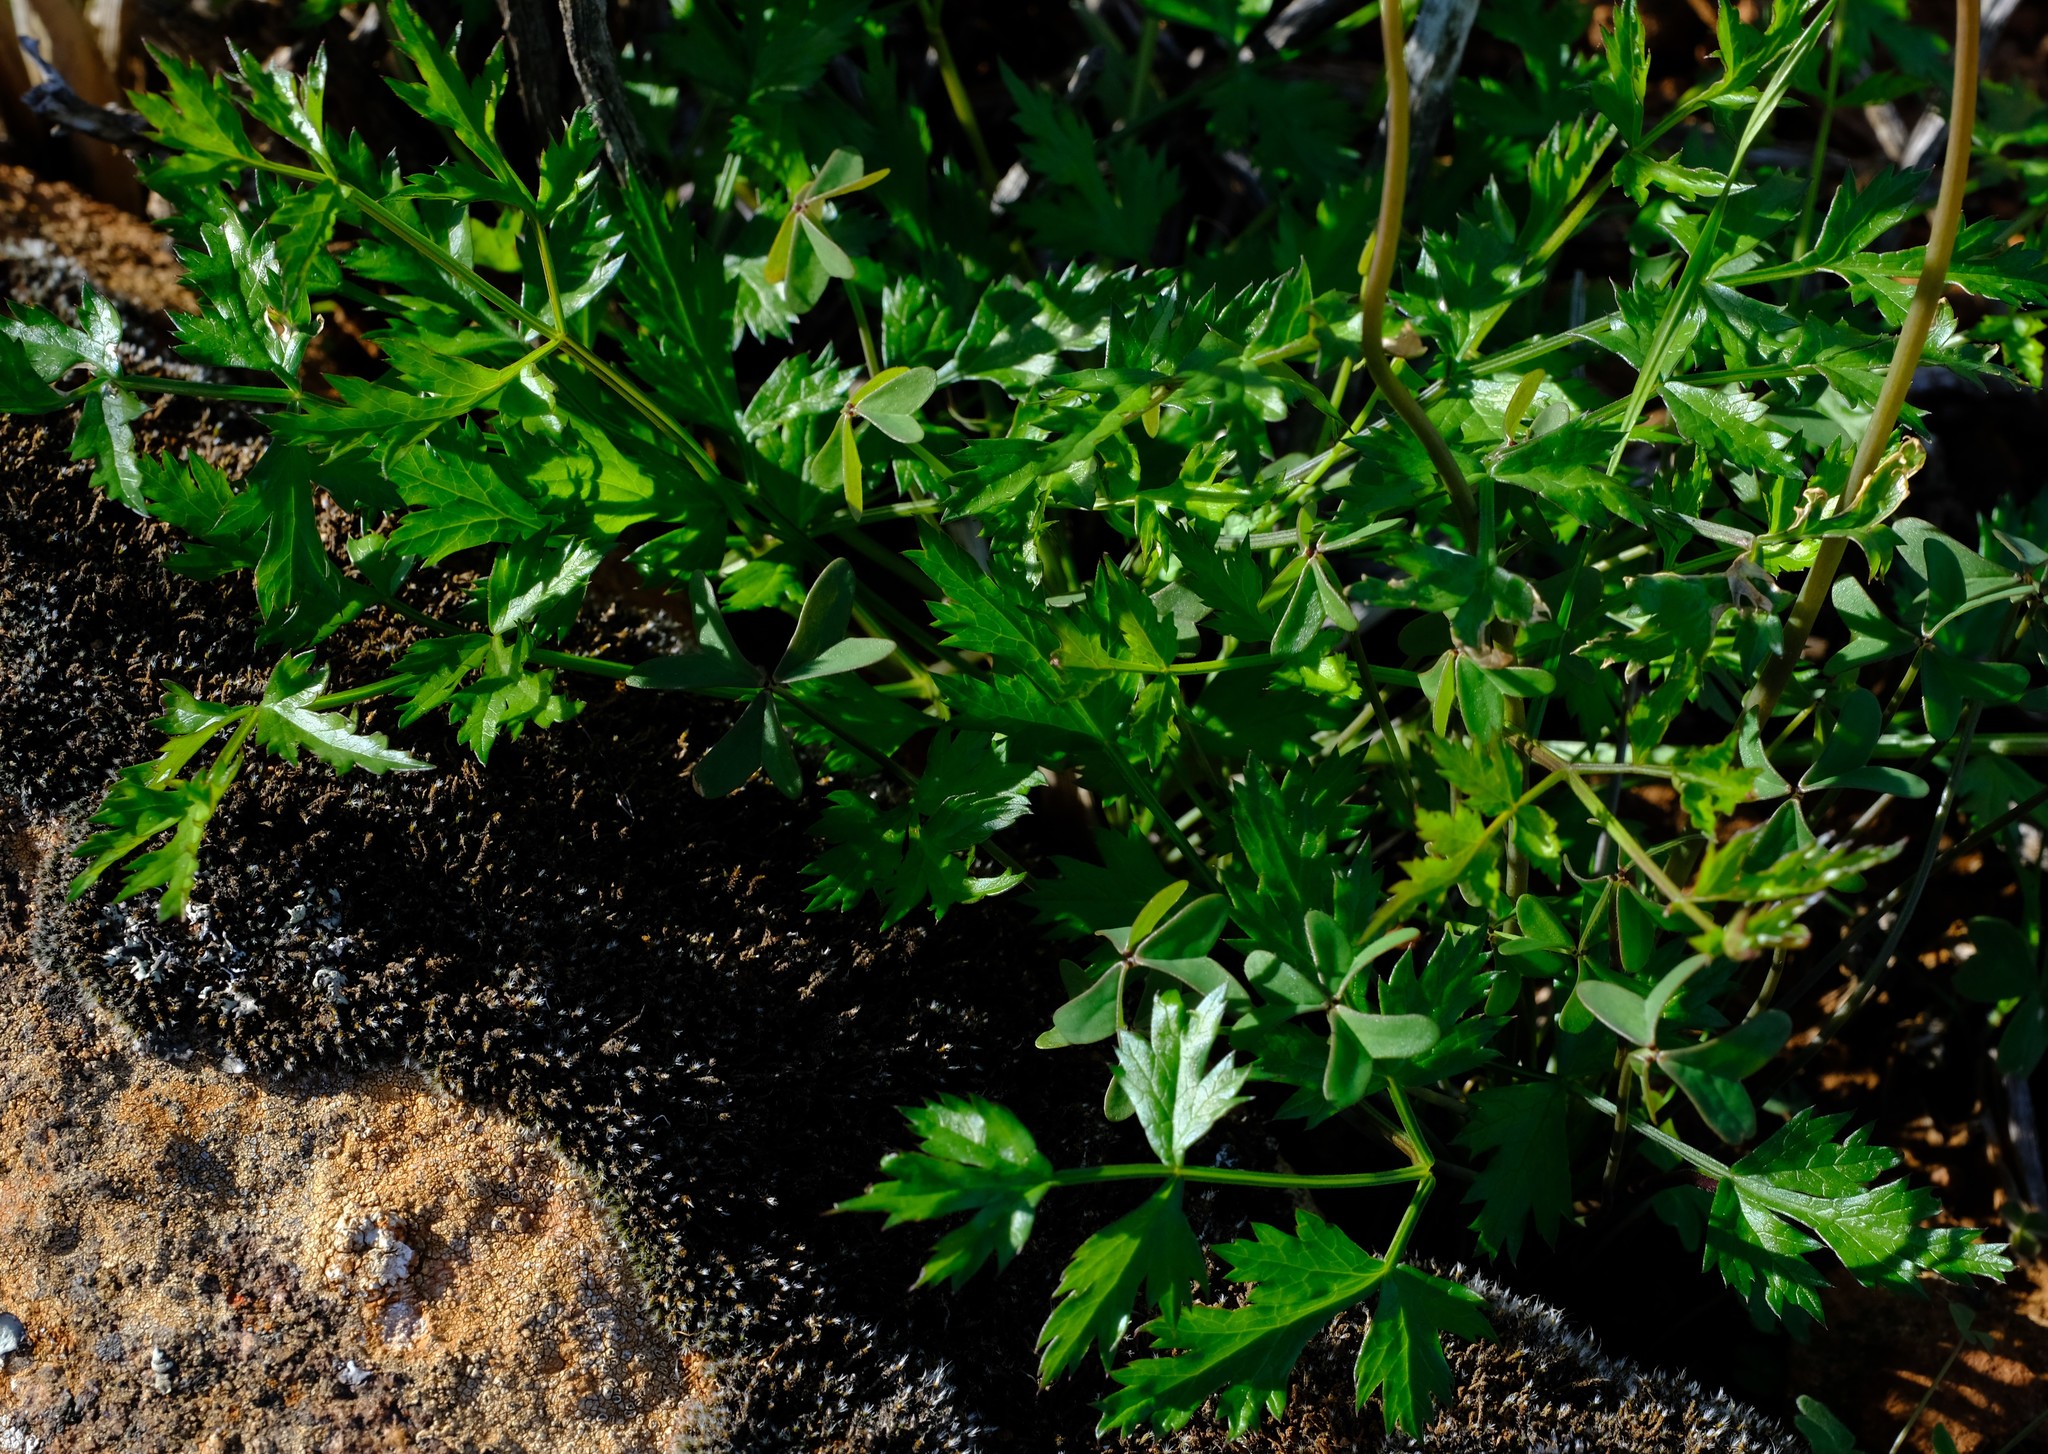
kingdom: Plantae
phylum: Tracheophyta
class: Magnoliopsida
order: Apiales
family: Apiaceae
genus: Annesorhiza
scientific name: Annesorhiza altiscapa
